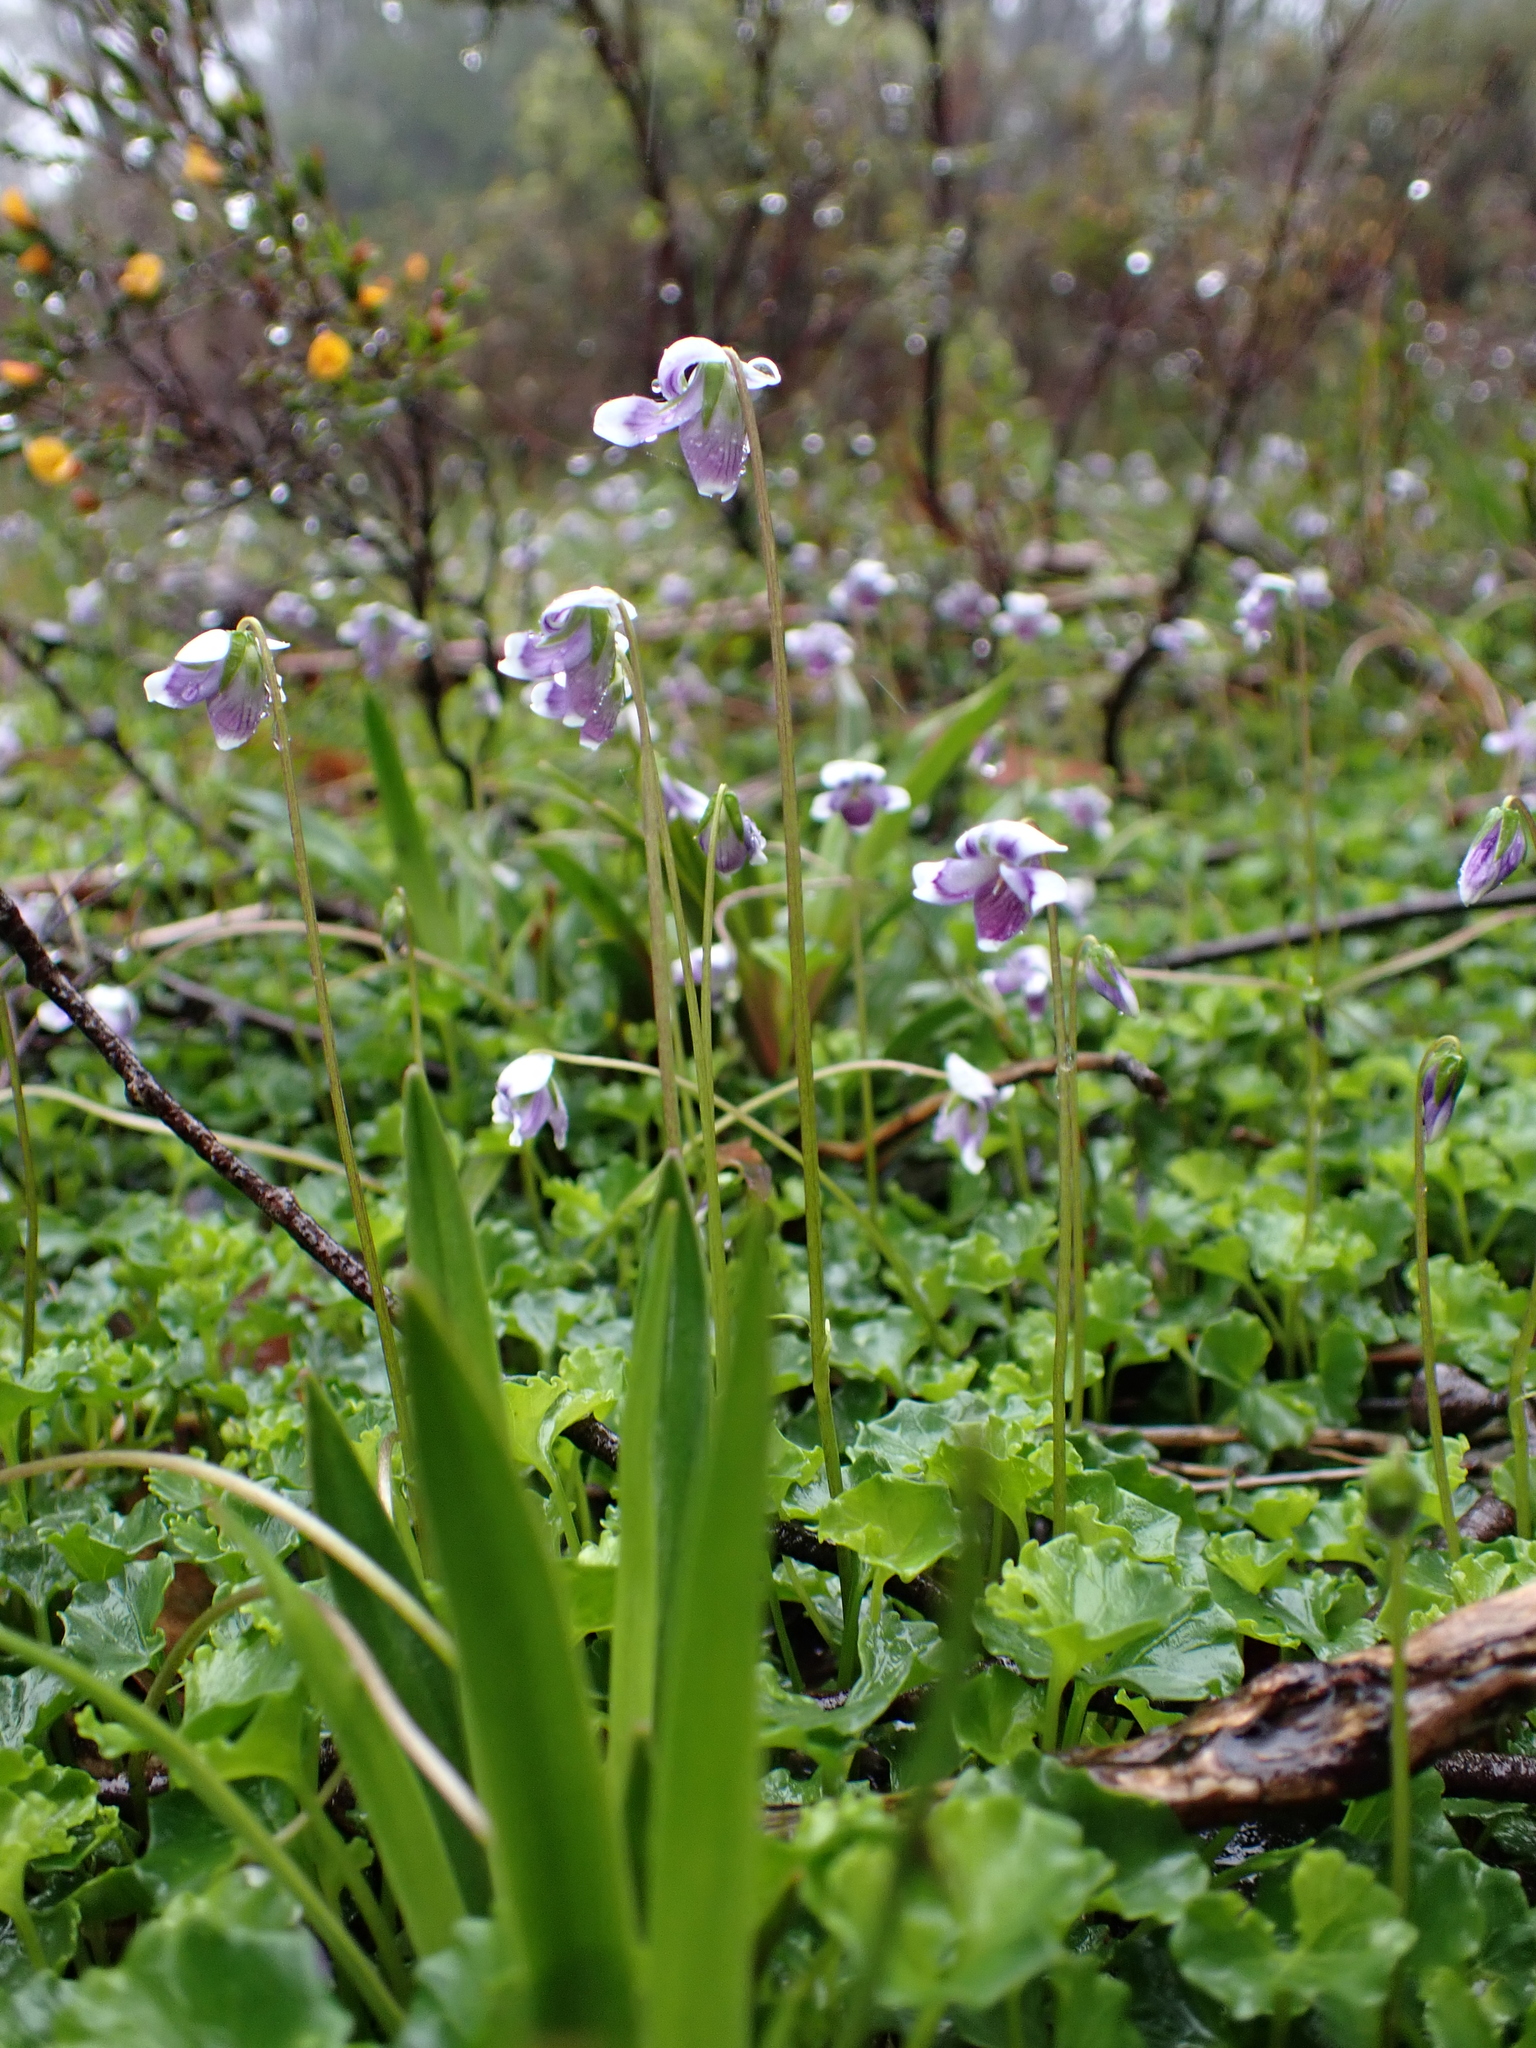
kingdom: Plantae
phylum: Tracheophyta
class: Magnoliopsida
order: Malpighiales
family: Violaceae
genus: Viola
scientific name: Viola eminens
